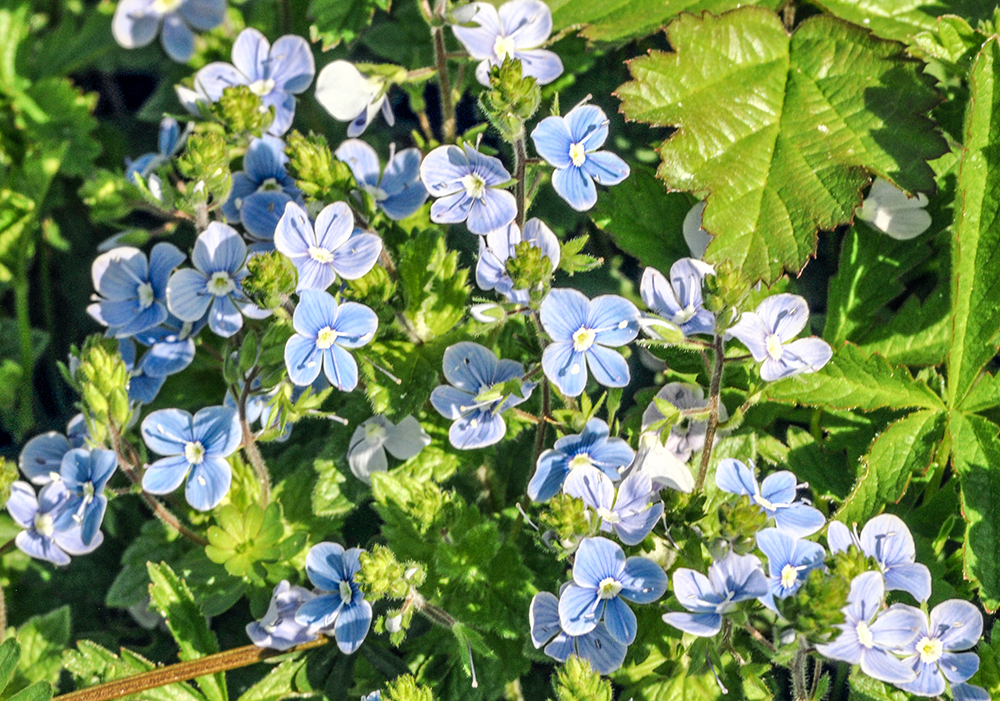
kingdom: Plantae
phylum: Tracheophyta
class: Magnoliopsida
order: Lamiales
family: Plantaginaceae
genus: Veronica
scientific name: Veronica chamaedrys
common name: Germander speedwell
